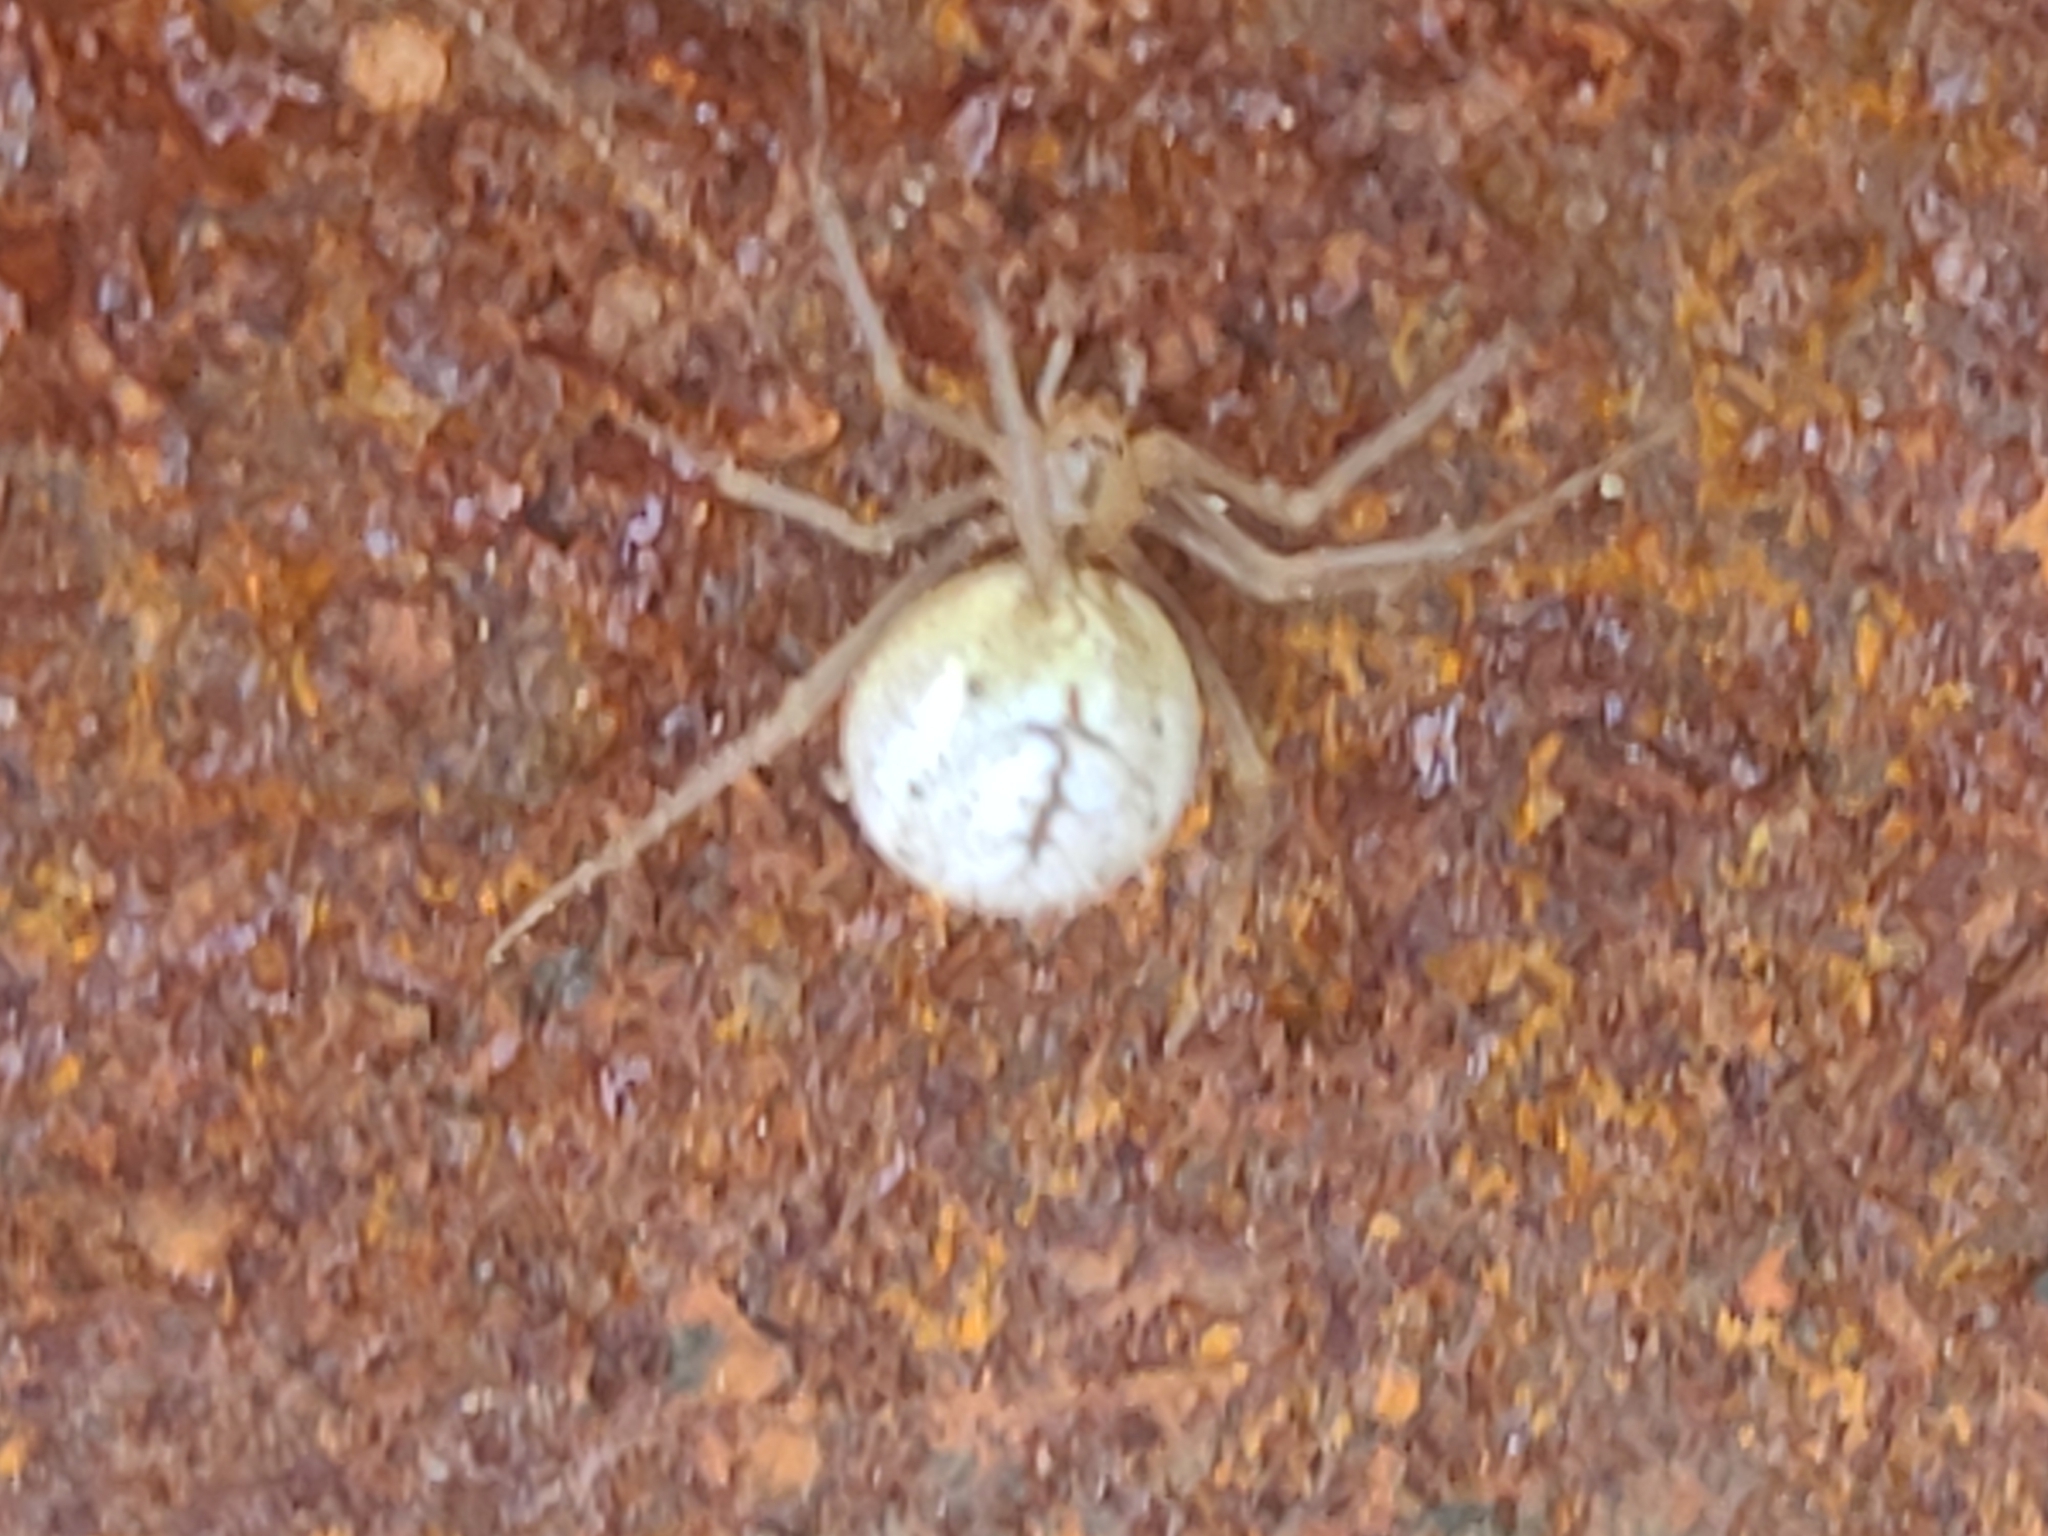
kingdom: Animalia
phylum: Arthropoda
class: Arachnida
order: Araneae
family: Theridiidae
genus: Enoplognatha
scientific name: Enoplognatha ovata
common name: Common candy-striped spider
